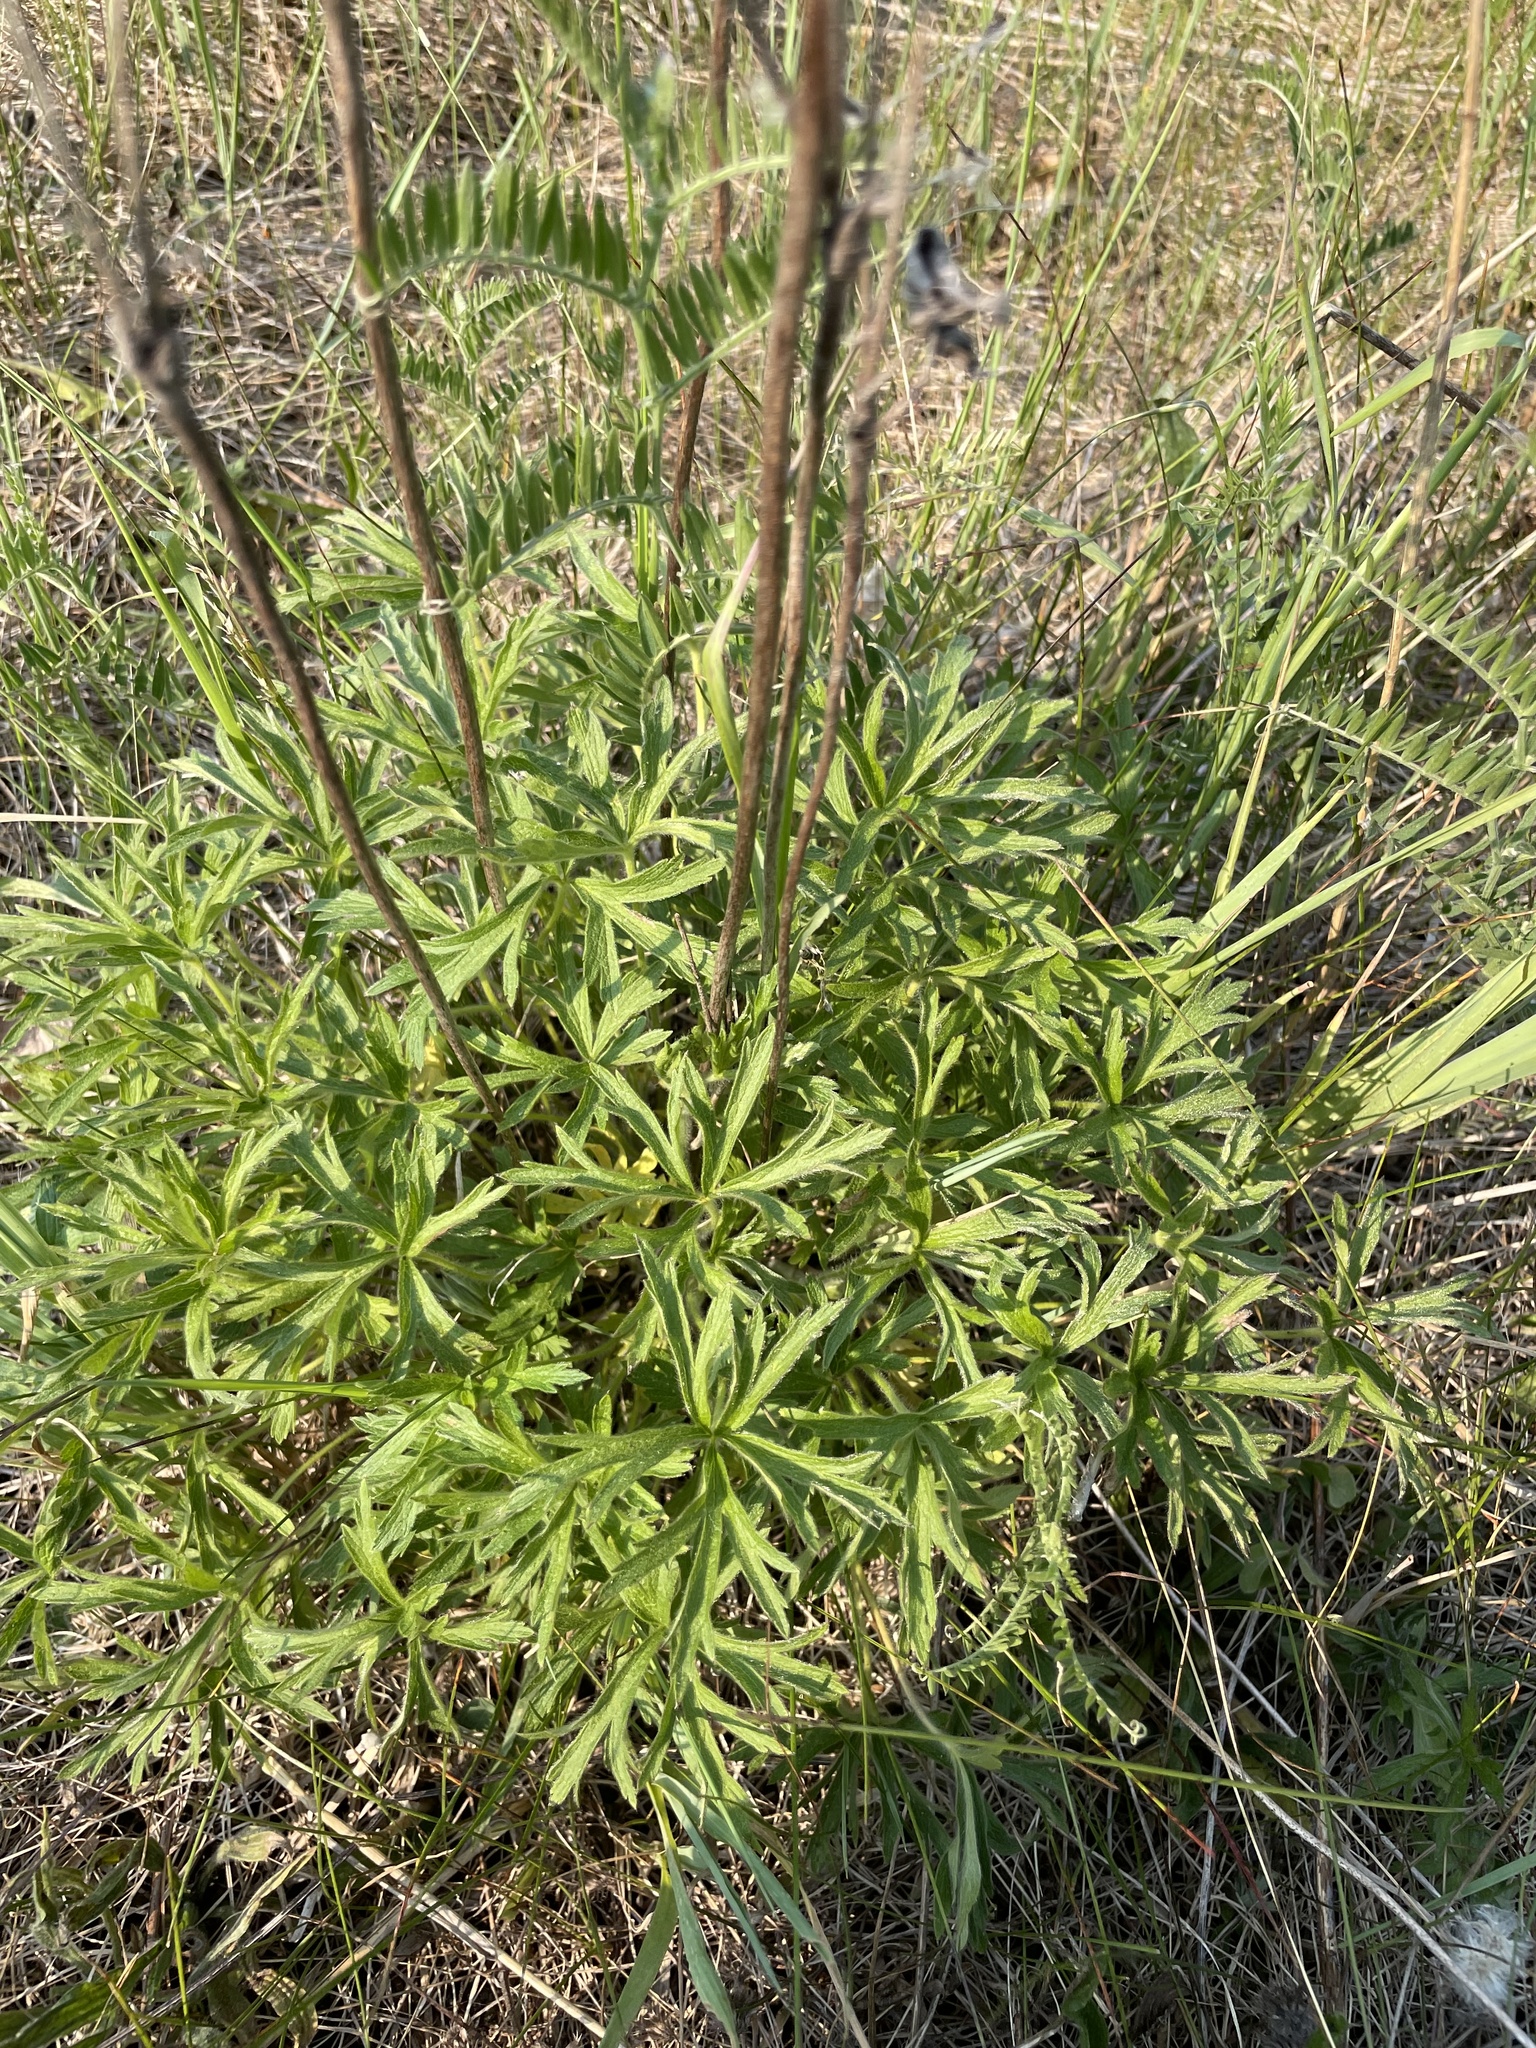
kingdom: Plantae
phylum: Tracheophyta
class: Magnoliopsida
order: Ranunculales
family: Ranunculaceae
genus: Anemone
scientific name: Anemone cylindrica
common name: Candle anemone
